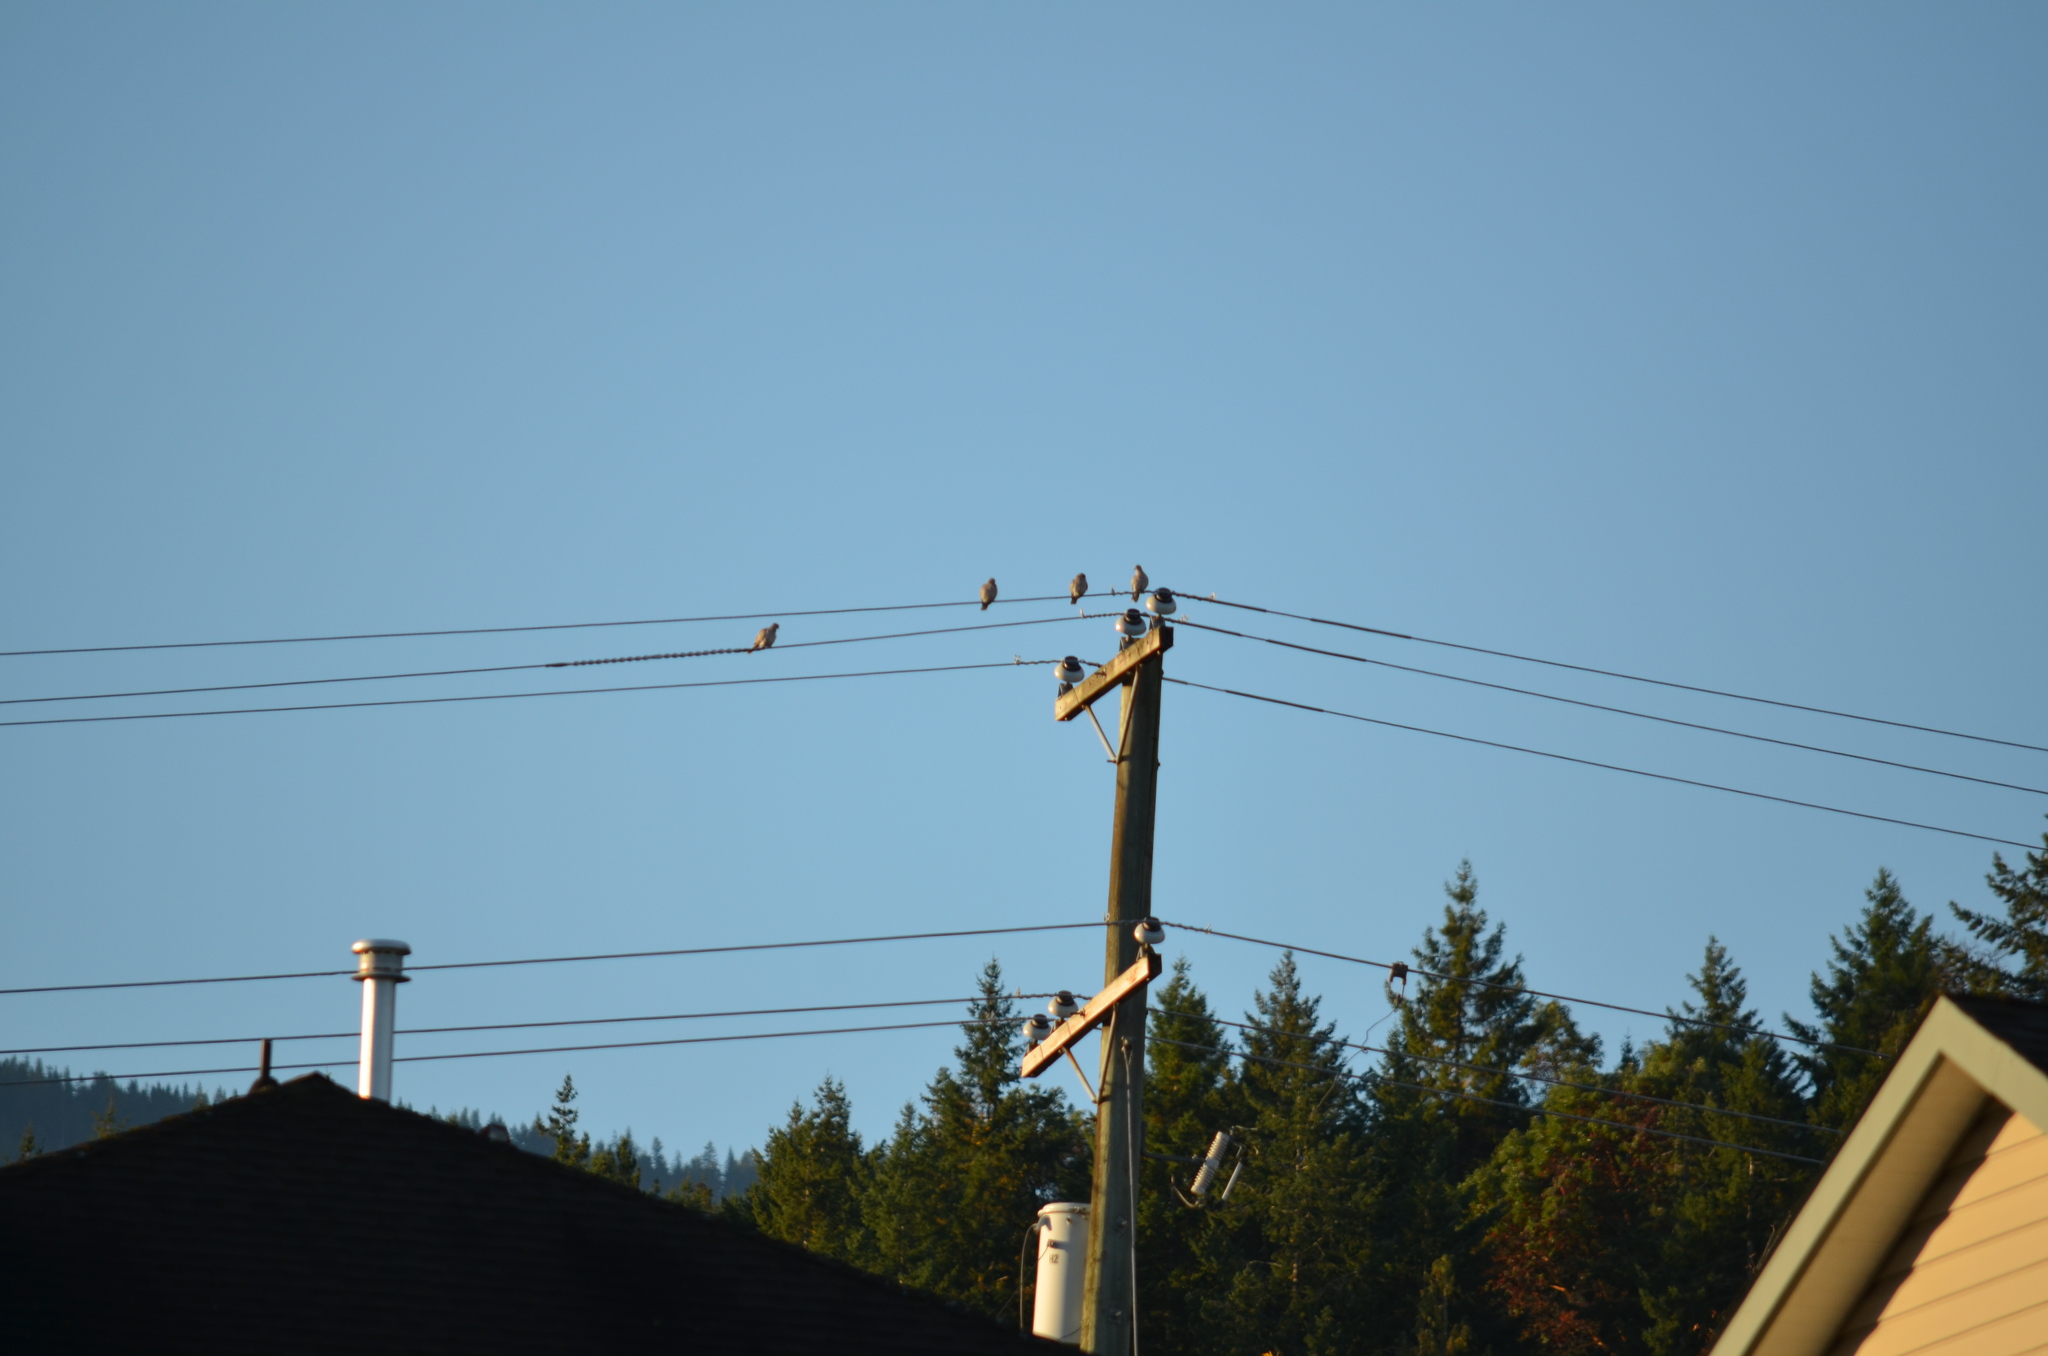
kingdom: Animalia
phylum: Chordata
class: Aves
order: Columbiformes
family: Columbidae
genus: Streptopelia
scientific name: Streptopelia decaocto
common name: Eurasian collared dove
